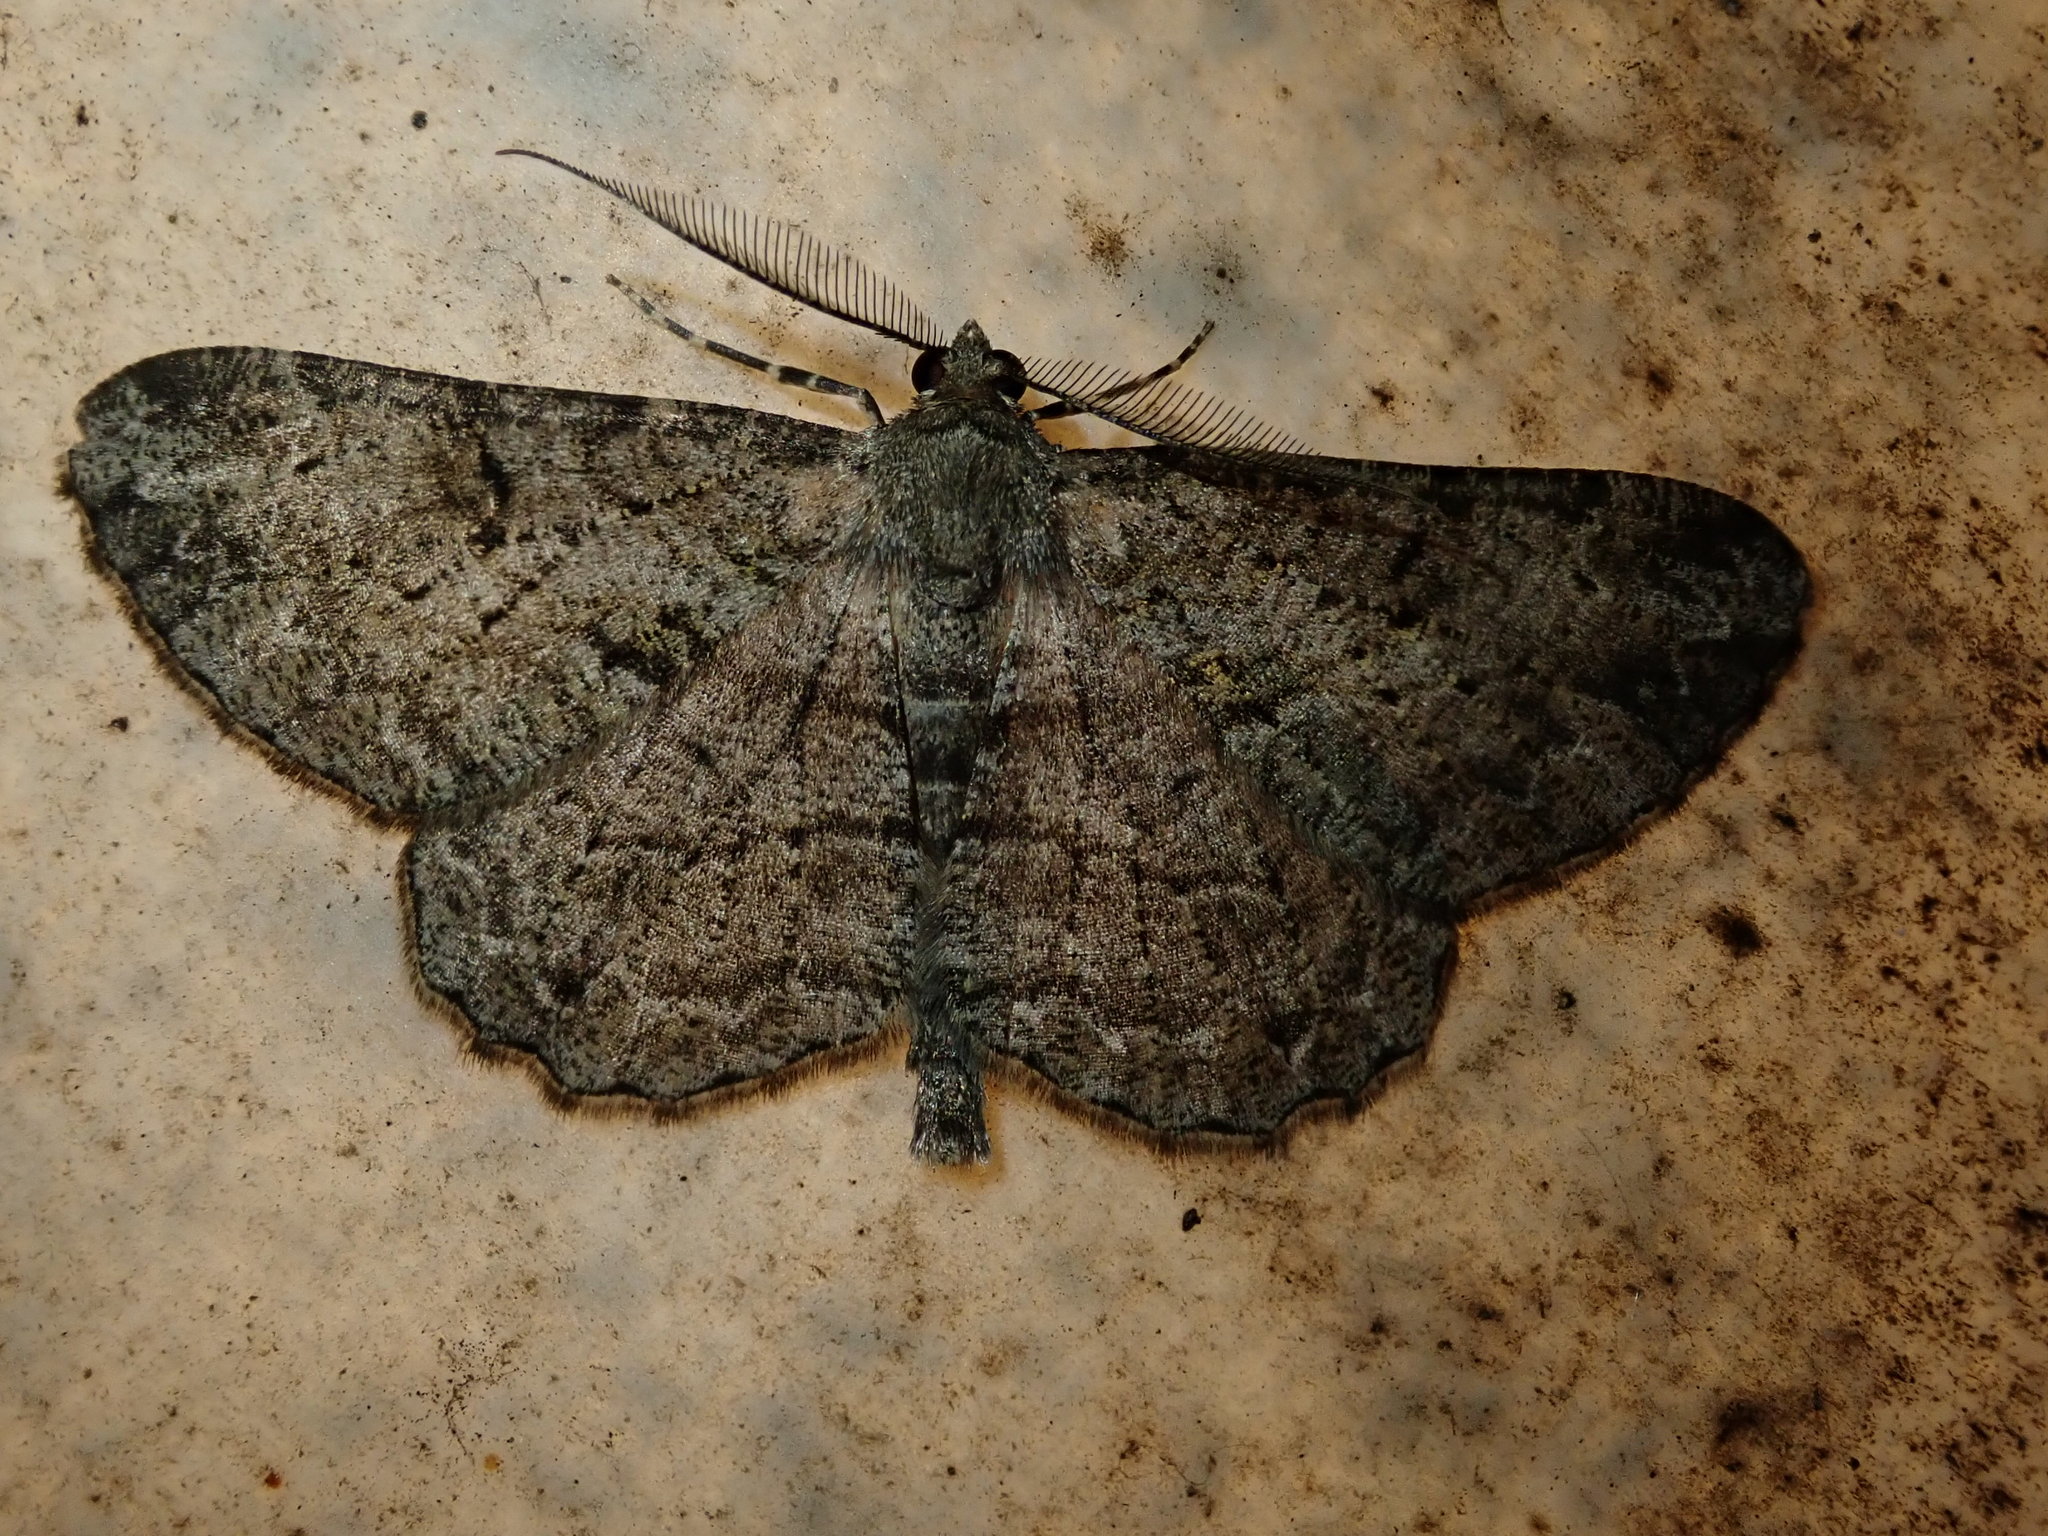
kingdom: Animalia
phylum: Arthropoda
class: Insecta
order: Lepidoptera
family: Geometridae
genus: Peribatodes
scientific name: Peribatodes rhomboidaria
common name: Willow beauty
